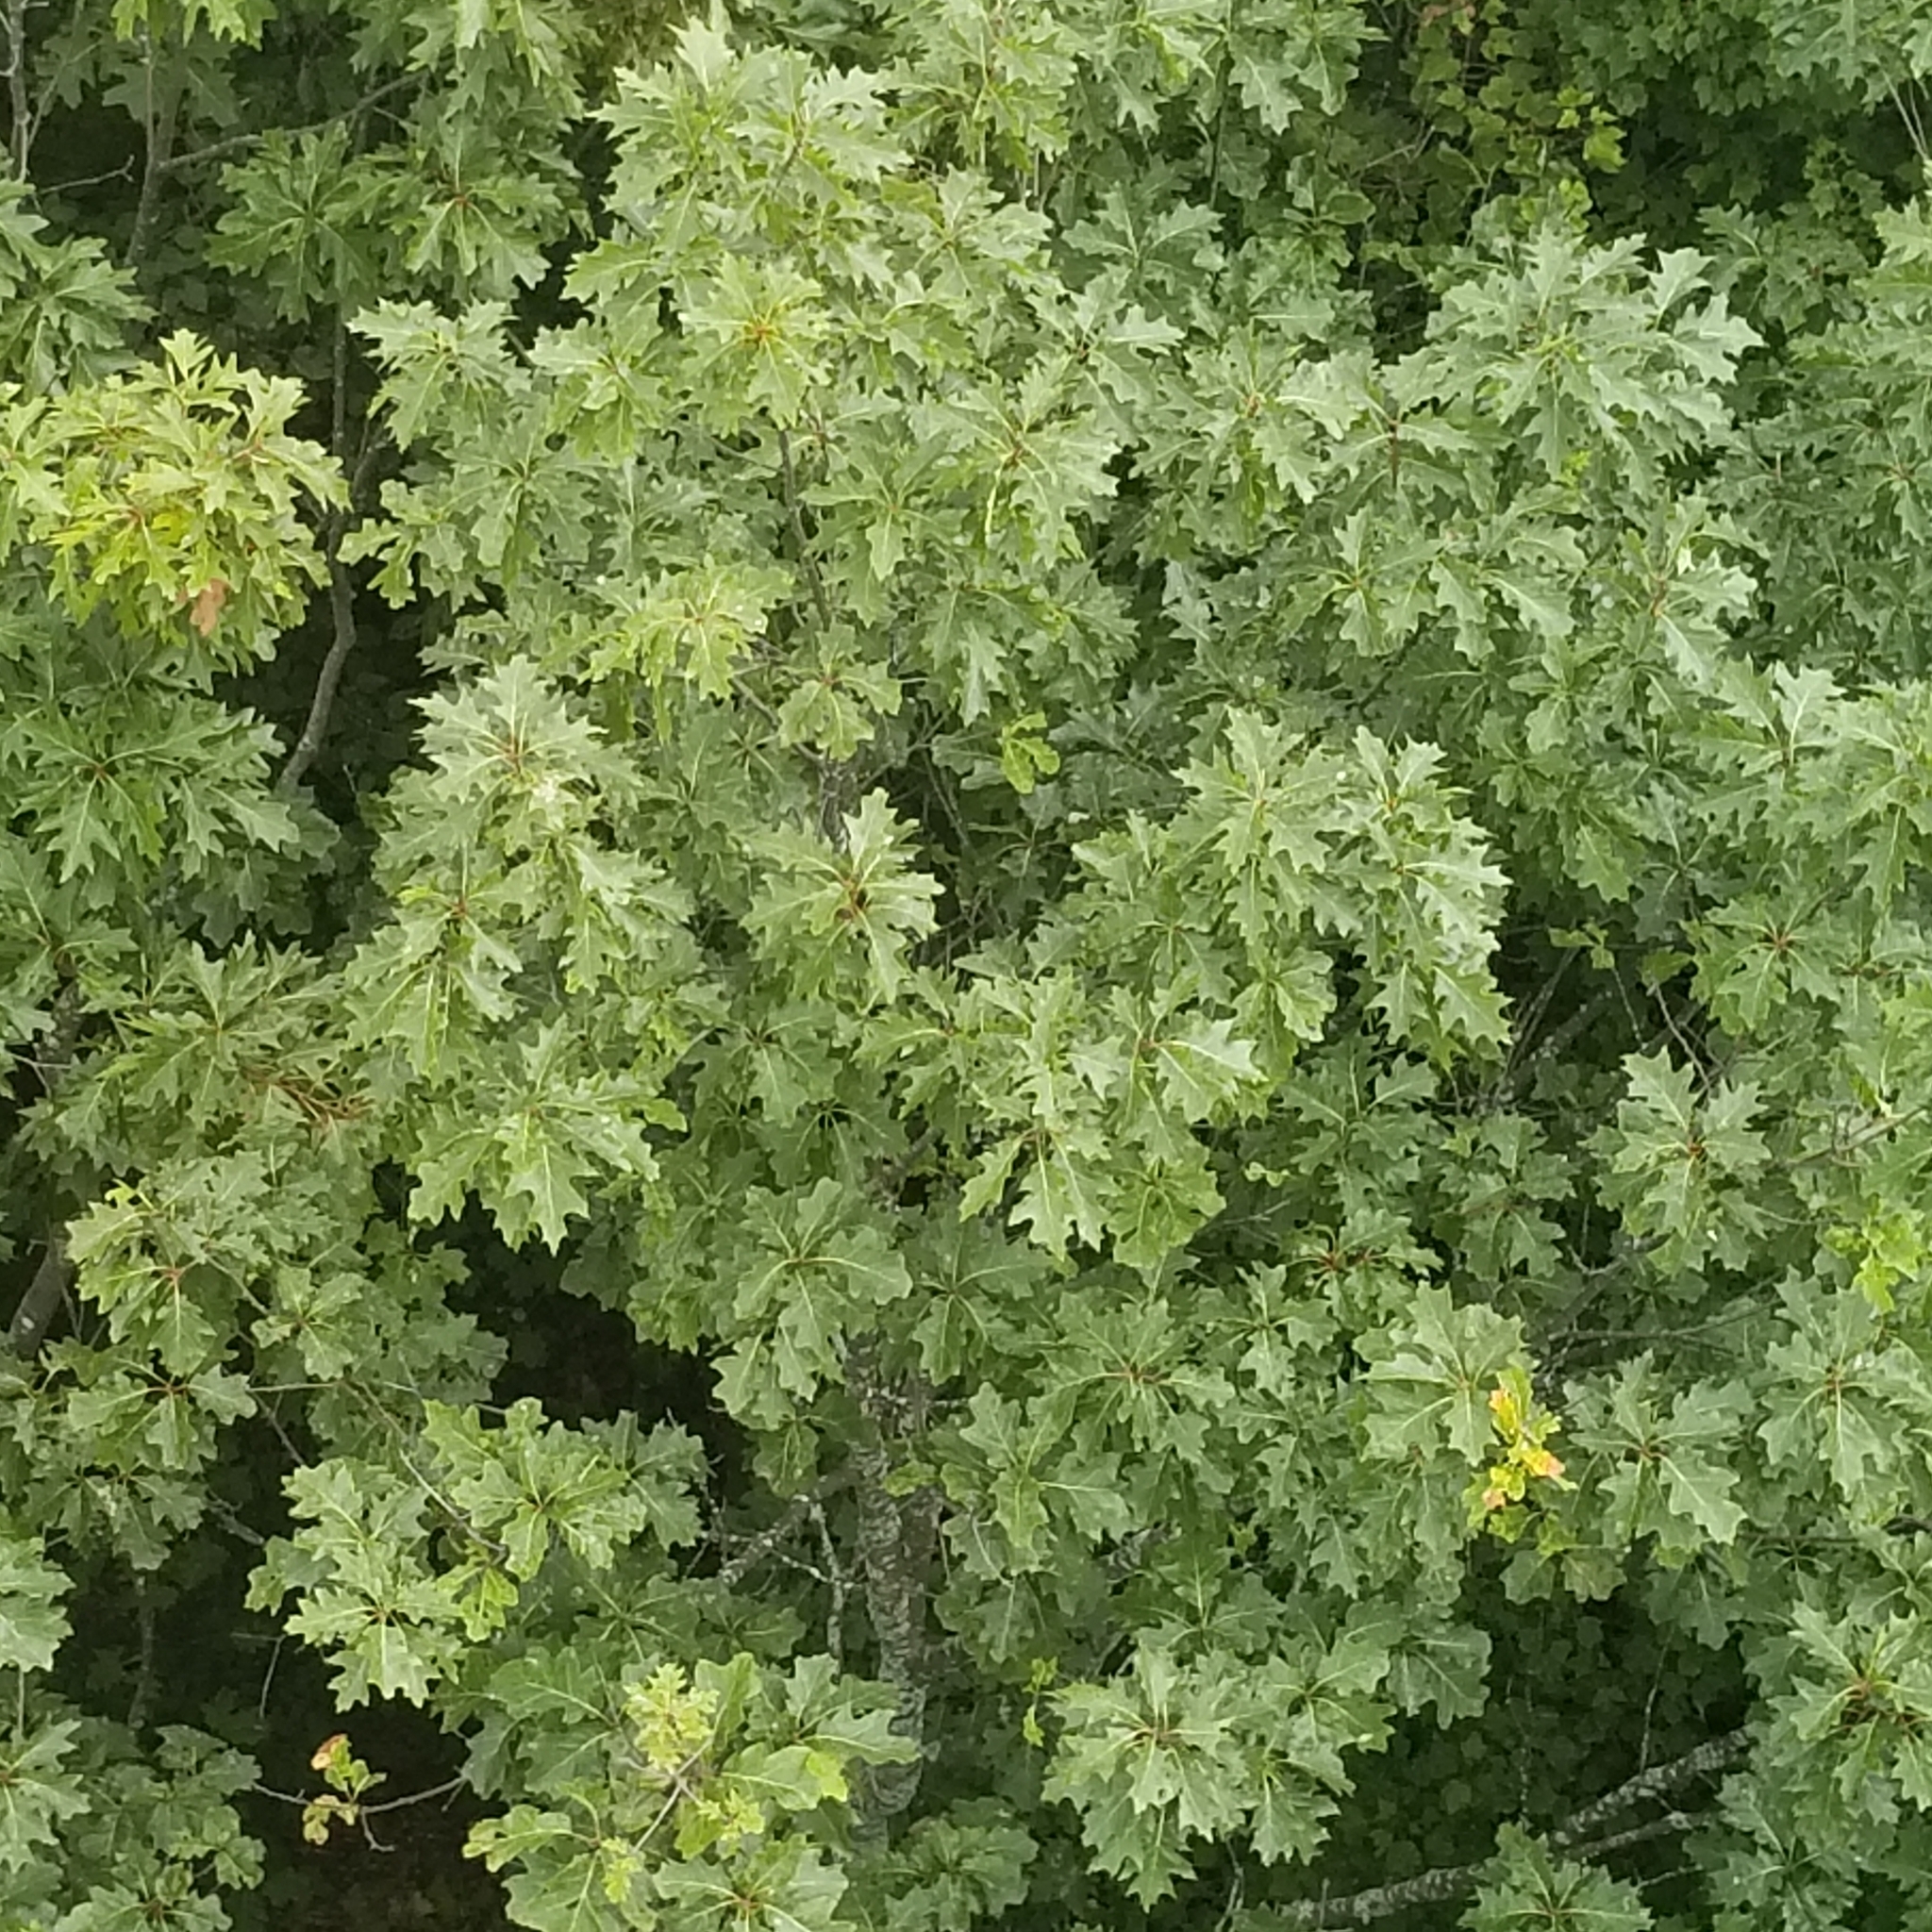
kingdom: Plantae
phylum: Tracheophyta
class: Magnoliopsida
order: Fagales
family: Fagaceae
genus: Quercus
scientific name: Quercus rubra
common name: Red oak
